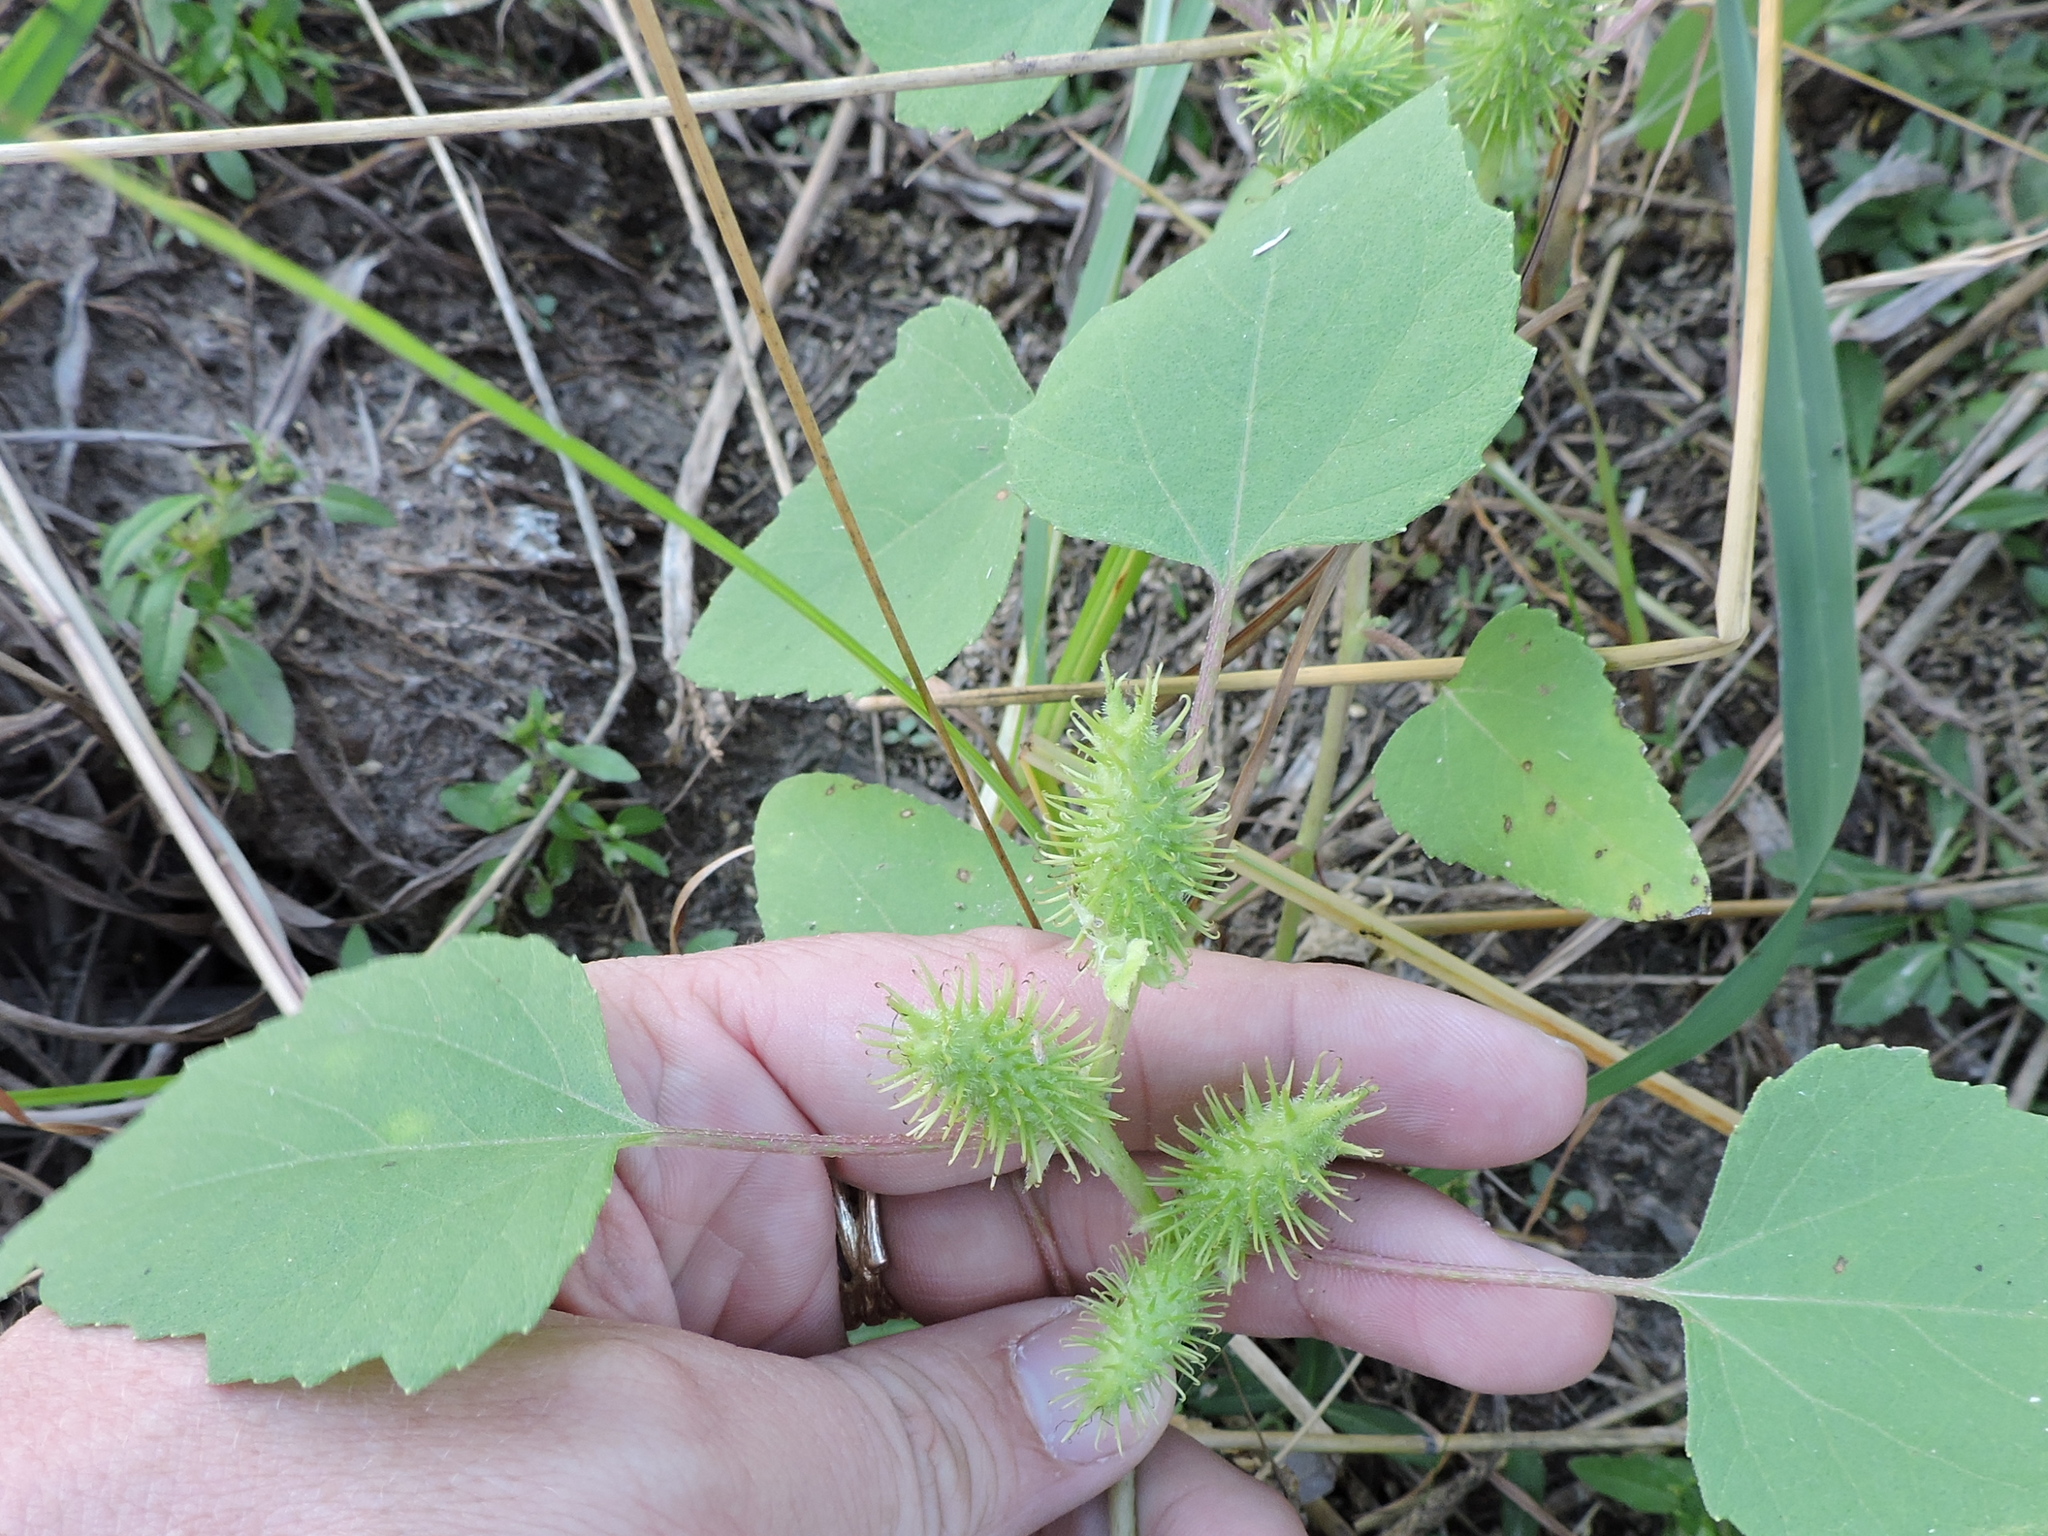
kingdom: Plantae
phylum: Tracheophyta
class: Magnoliopsida
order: Asterales
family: Asteraceae
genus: Xanthium
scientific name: Xanthium strumarium
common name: Rough cocklebur
